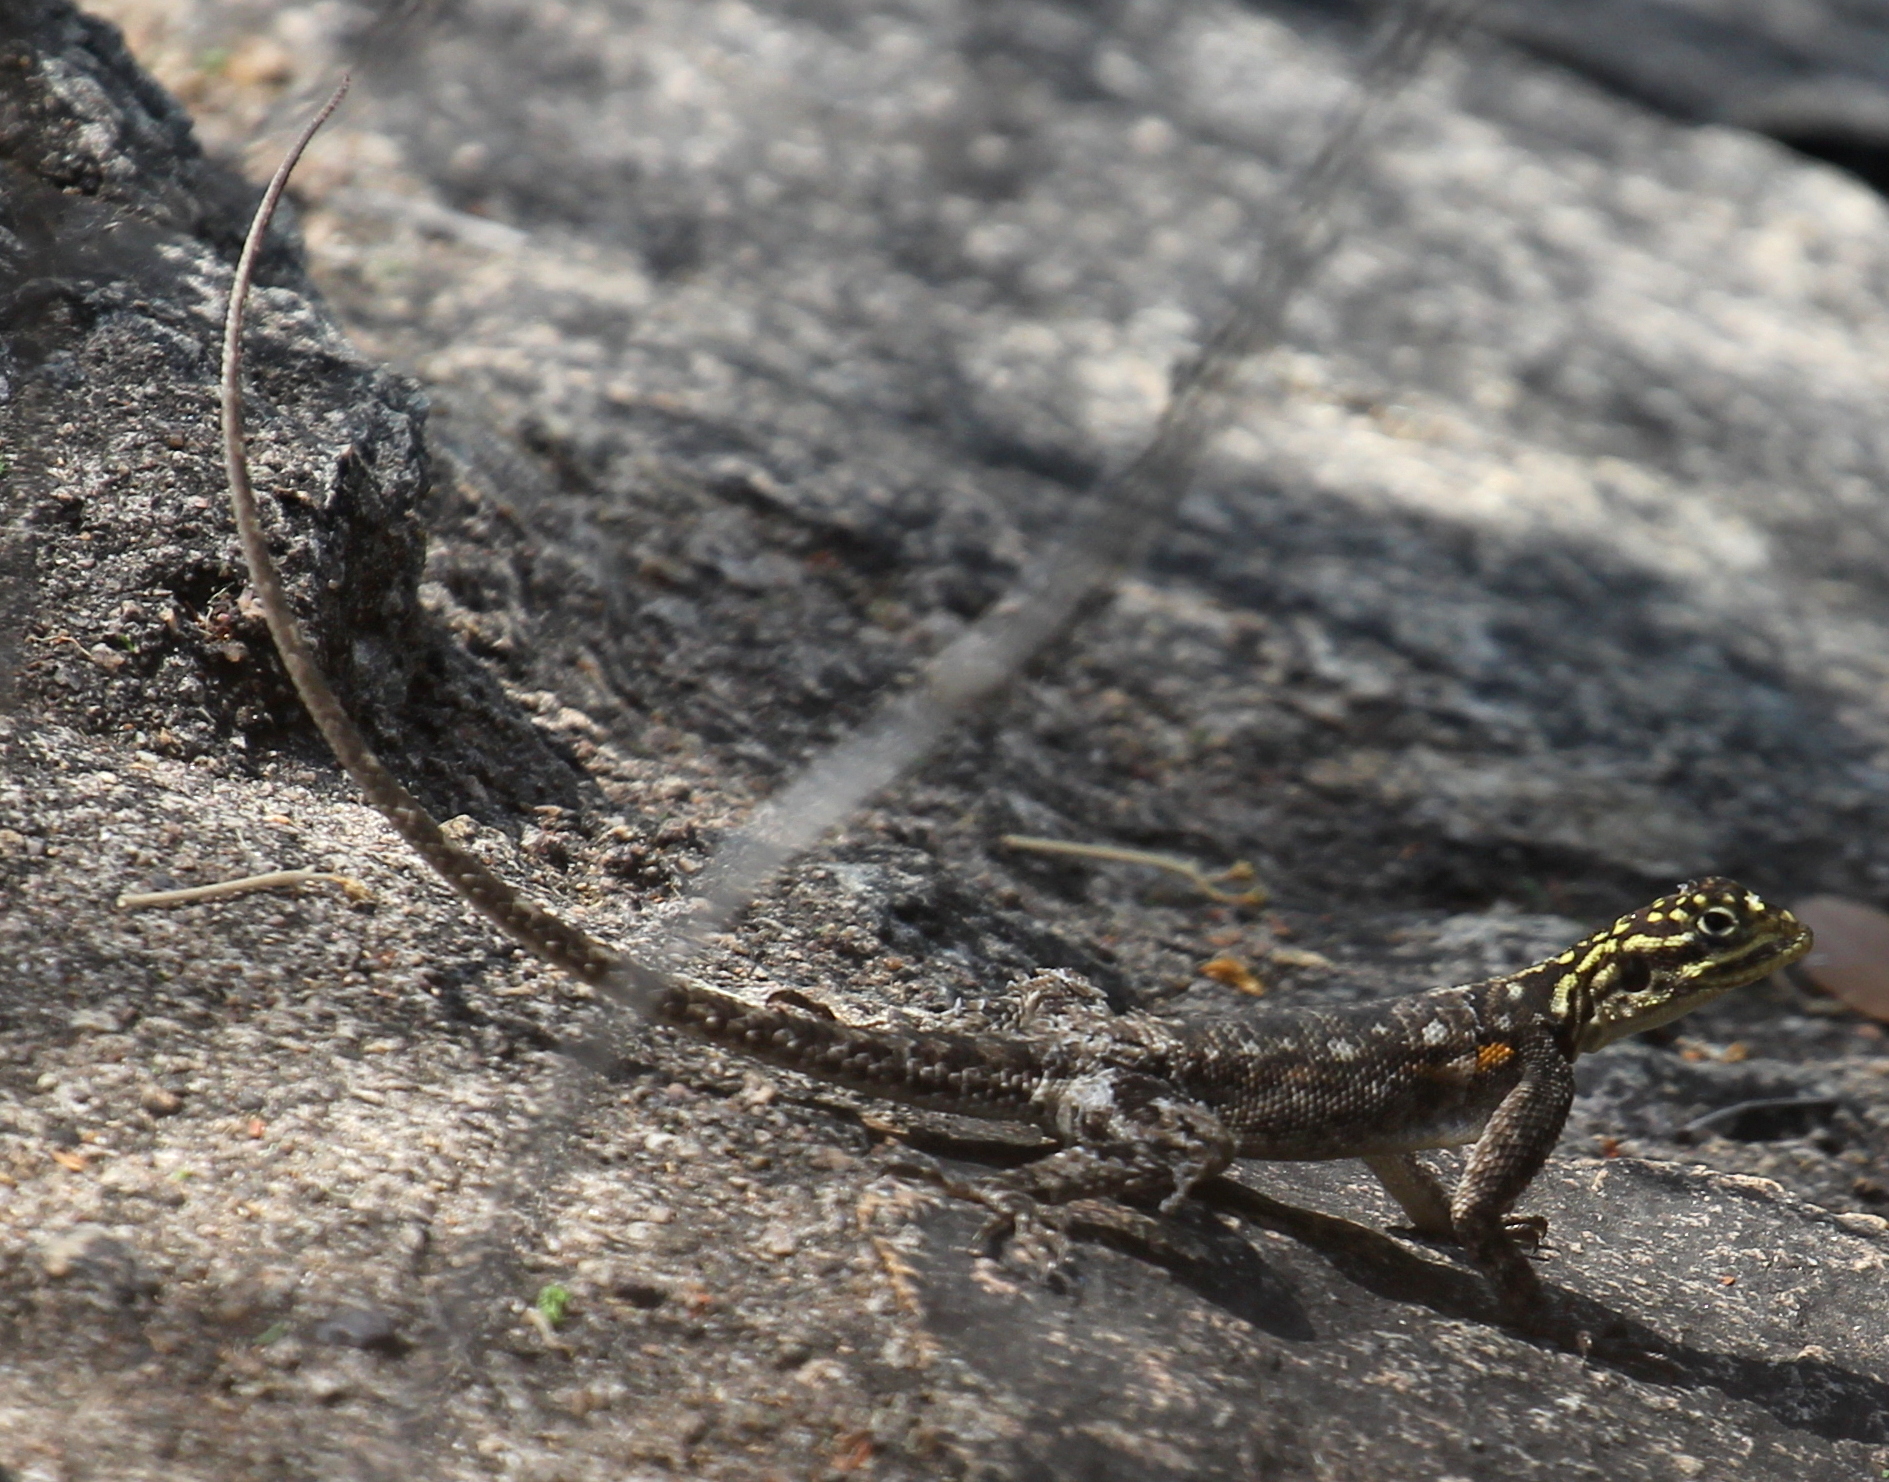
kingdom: Animalia
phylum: Chordata
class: Squamata
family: Agamidae
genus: Agama
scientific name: Agama planiceps
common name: Namib rock agama
